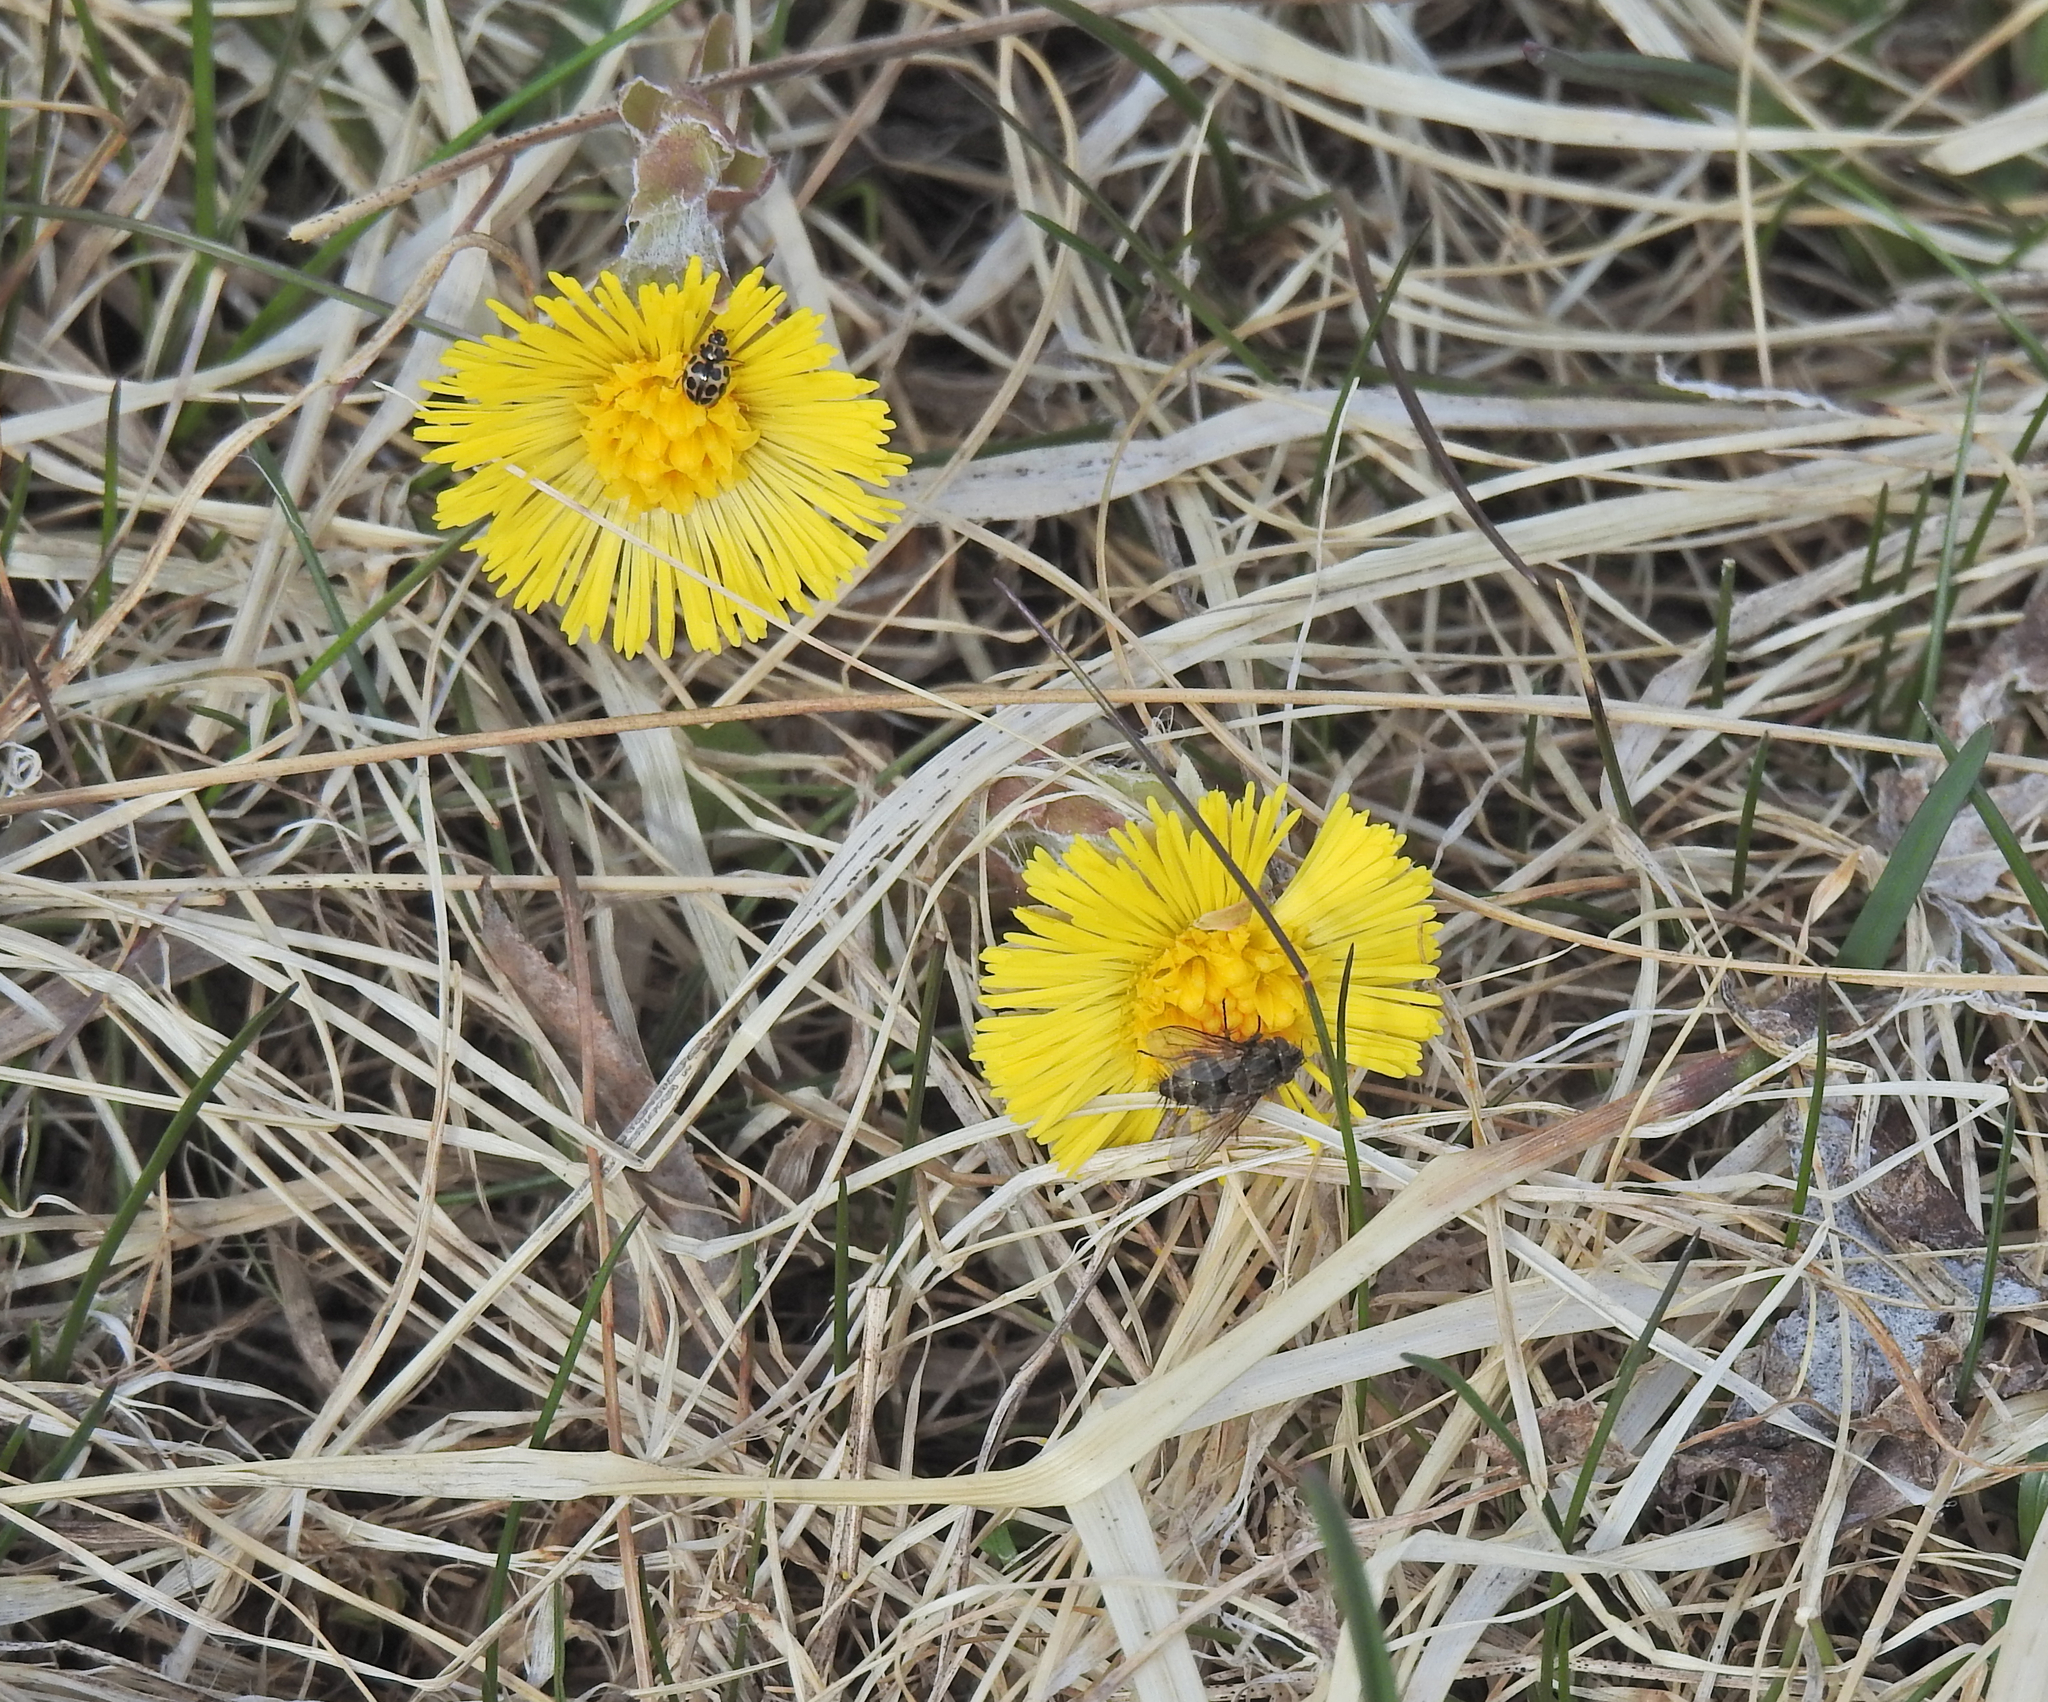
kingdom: Plantae
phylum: Tracheophyta
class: Magnoliopsida
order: Asterales
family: Asteraceae
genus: Tussilago
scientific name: Tussilago farfara
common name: Coltsfoot
